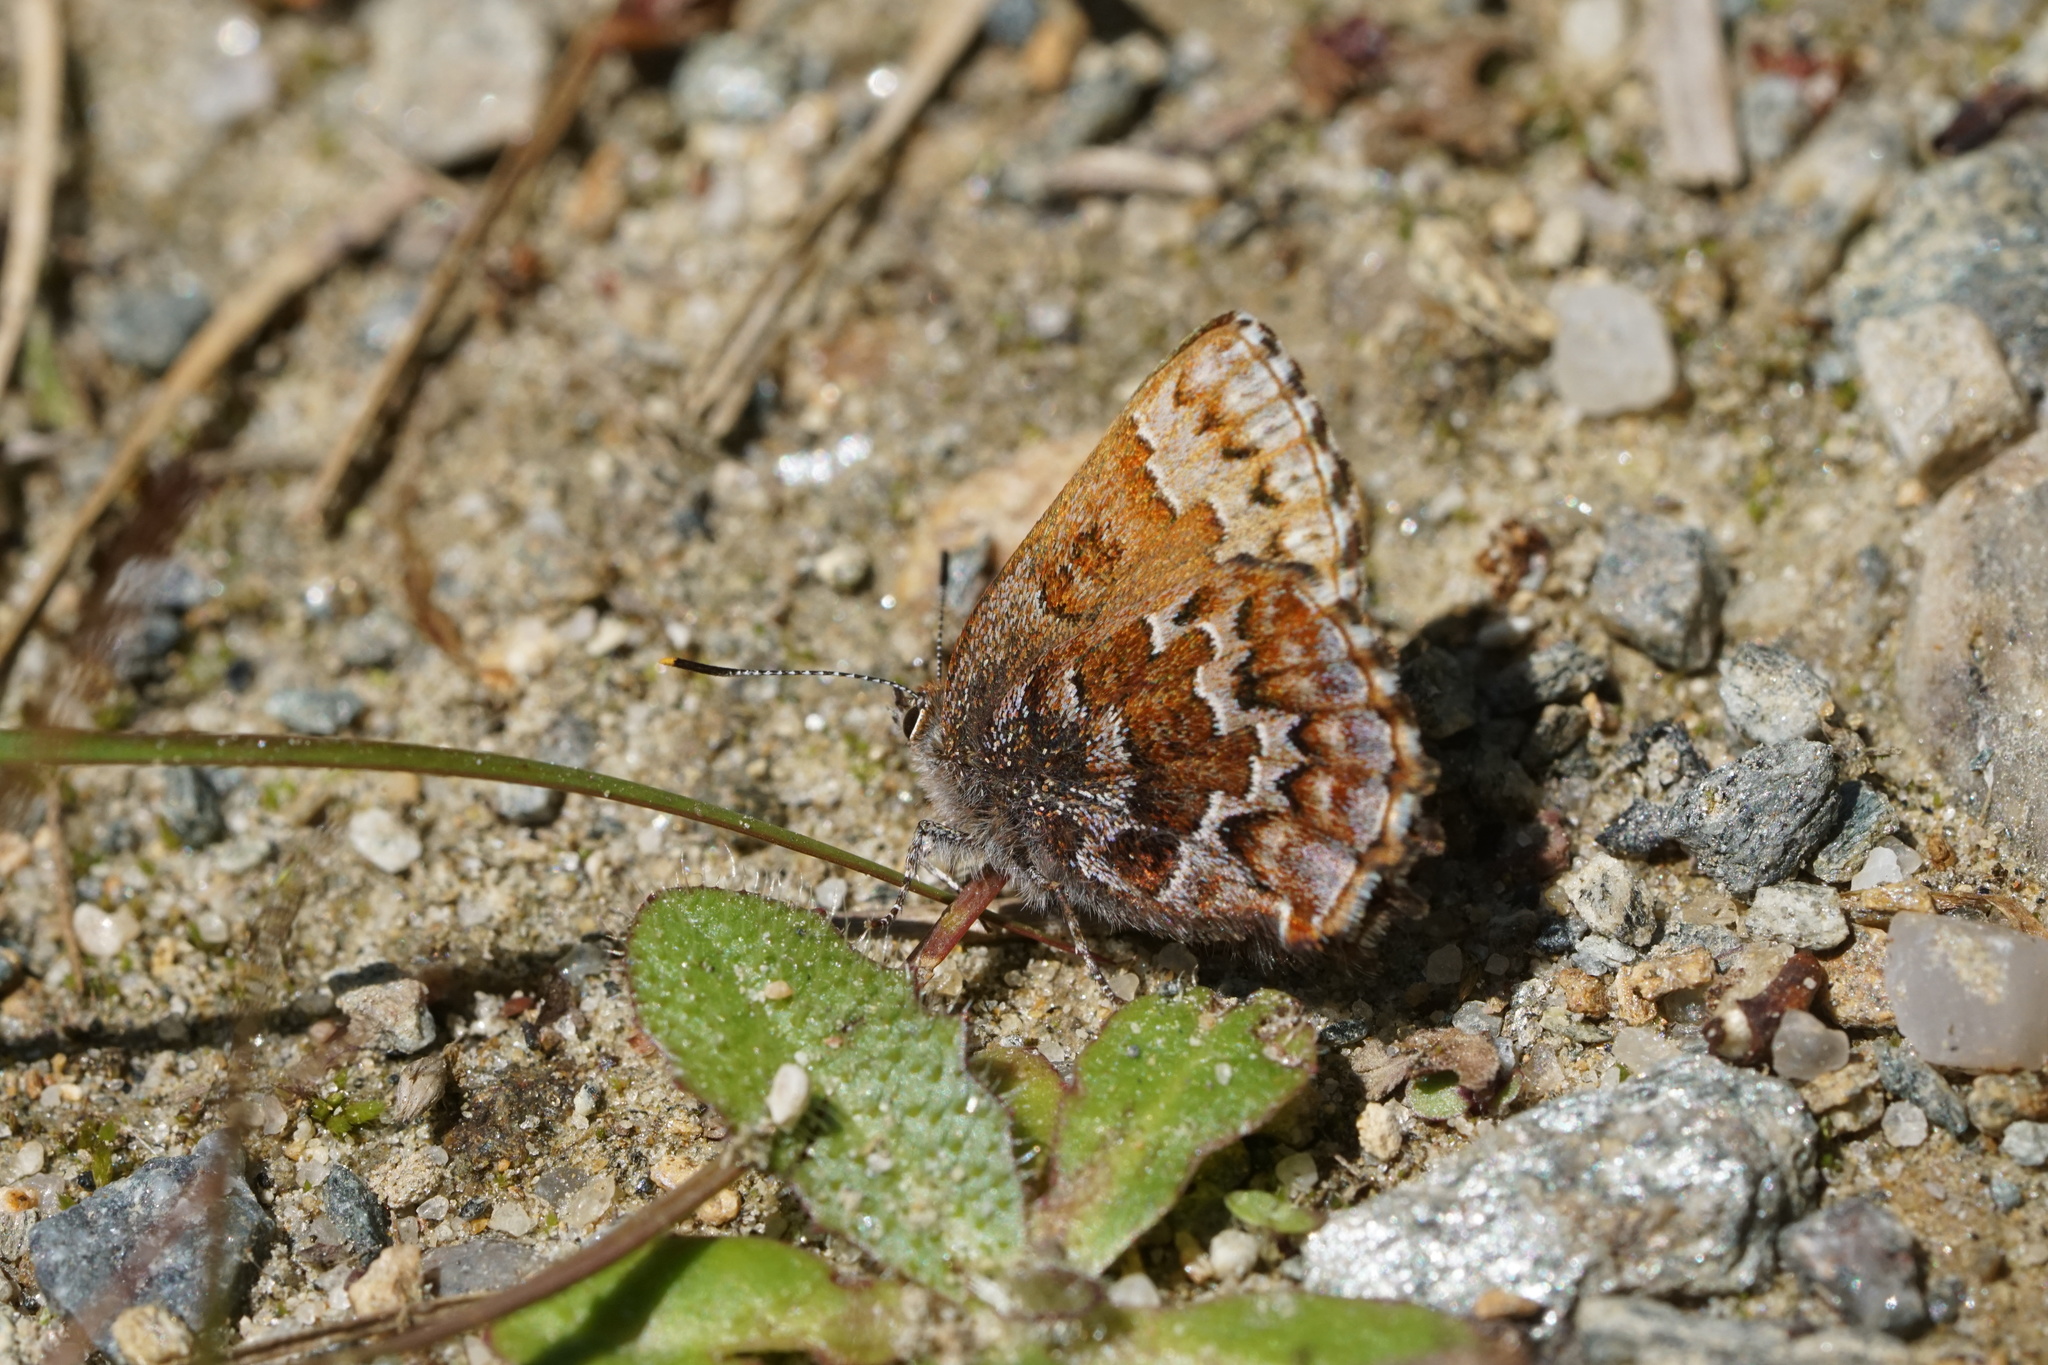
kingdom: Animalia
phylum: Arthropoda
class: Insecta
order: Lepidoptera
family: Lycaenidae
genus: Incisalia
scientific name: Incisalia niphon
